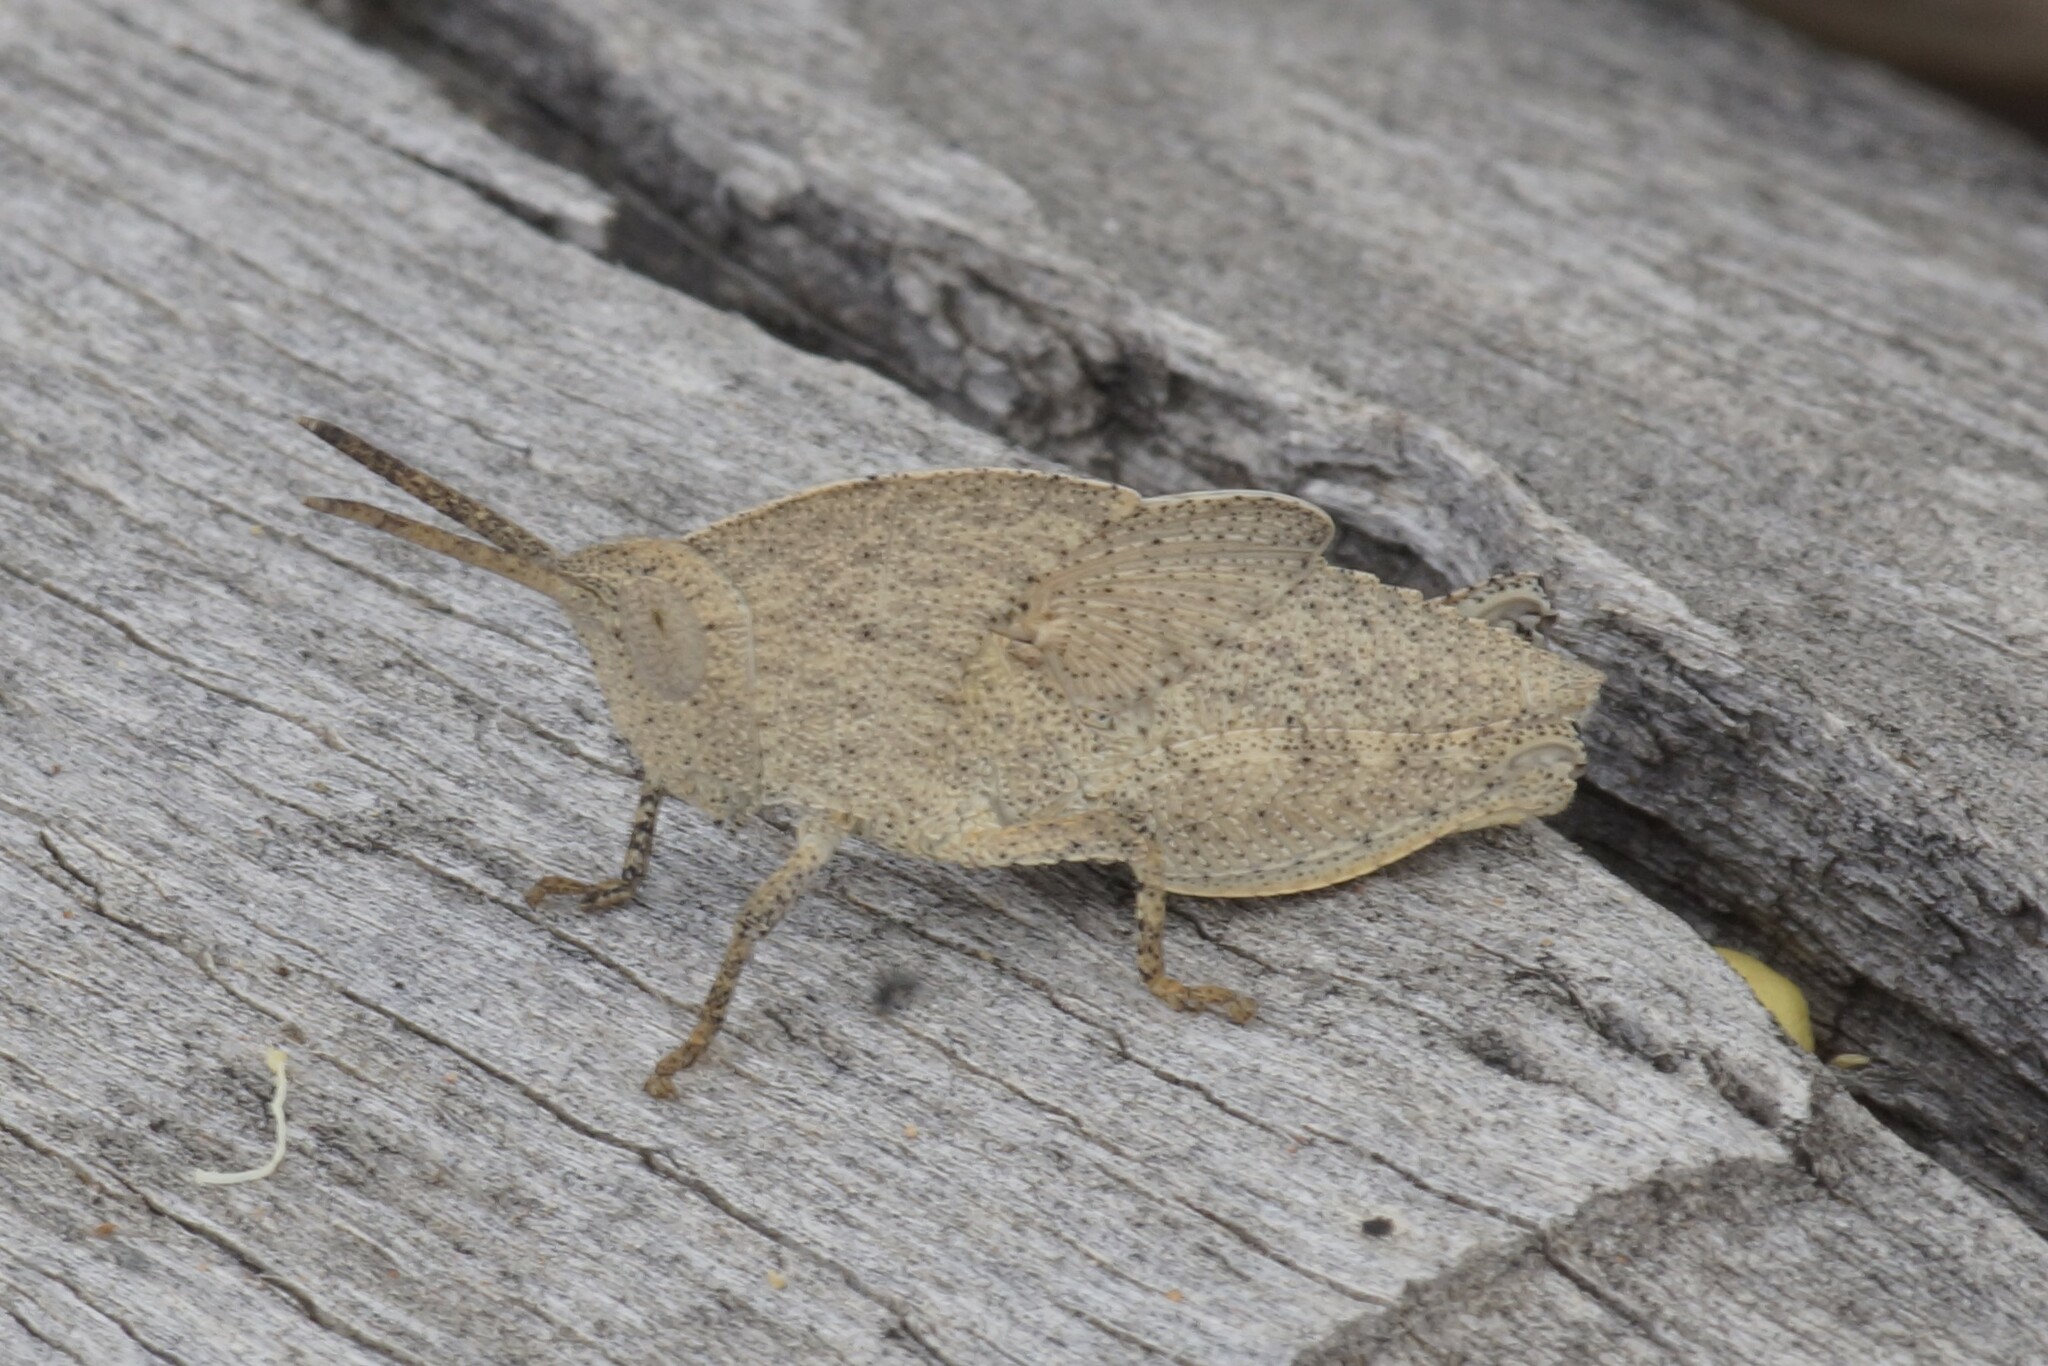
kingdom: Animalia
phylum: Arthropoda
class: Insecta
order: Orthoptera
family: Acrididae
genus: Goniaea
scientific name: Goniaea australasiae
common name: Gumleaf grasshopper
